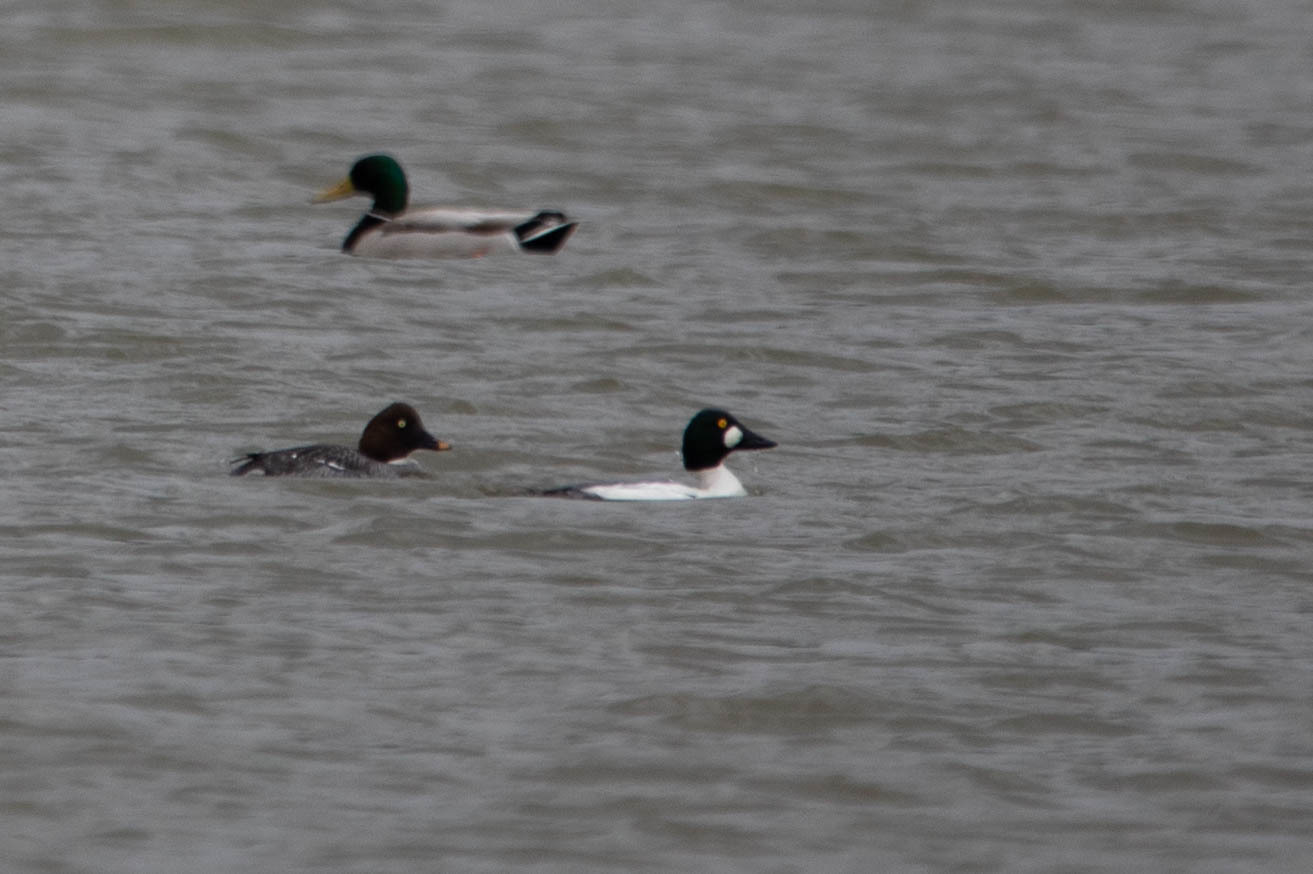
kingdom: Animalia
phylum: Chordata
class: Aves
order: Anseriformes
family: Anatidae
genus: Bucephala
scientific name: Bucephala clangula
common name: Common goldeneye
